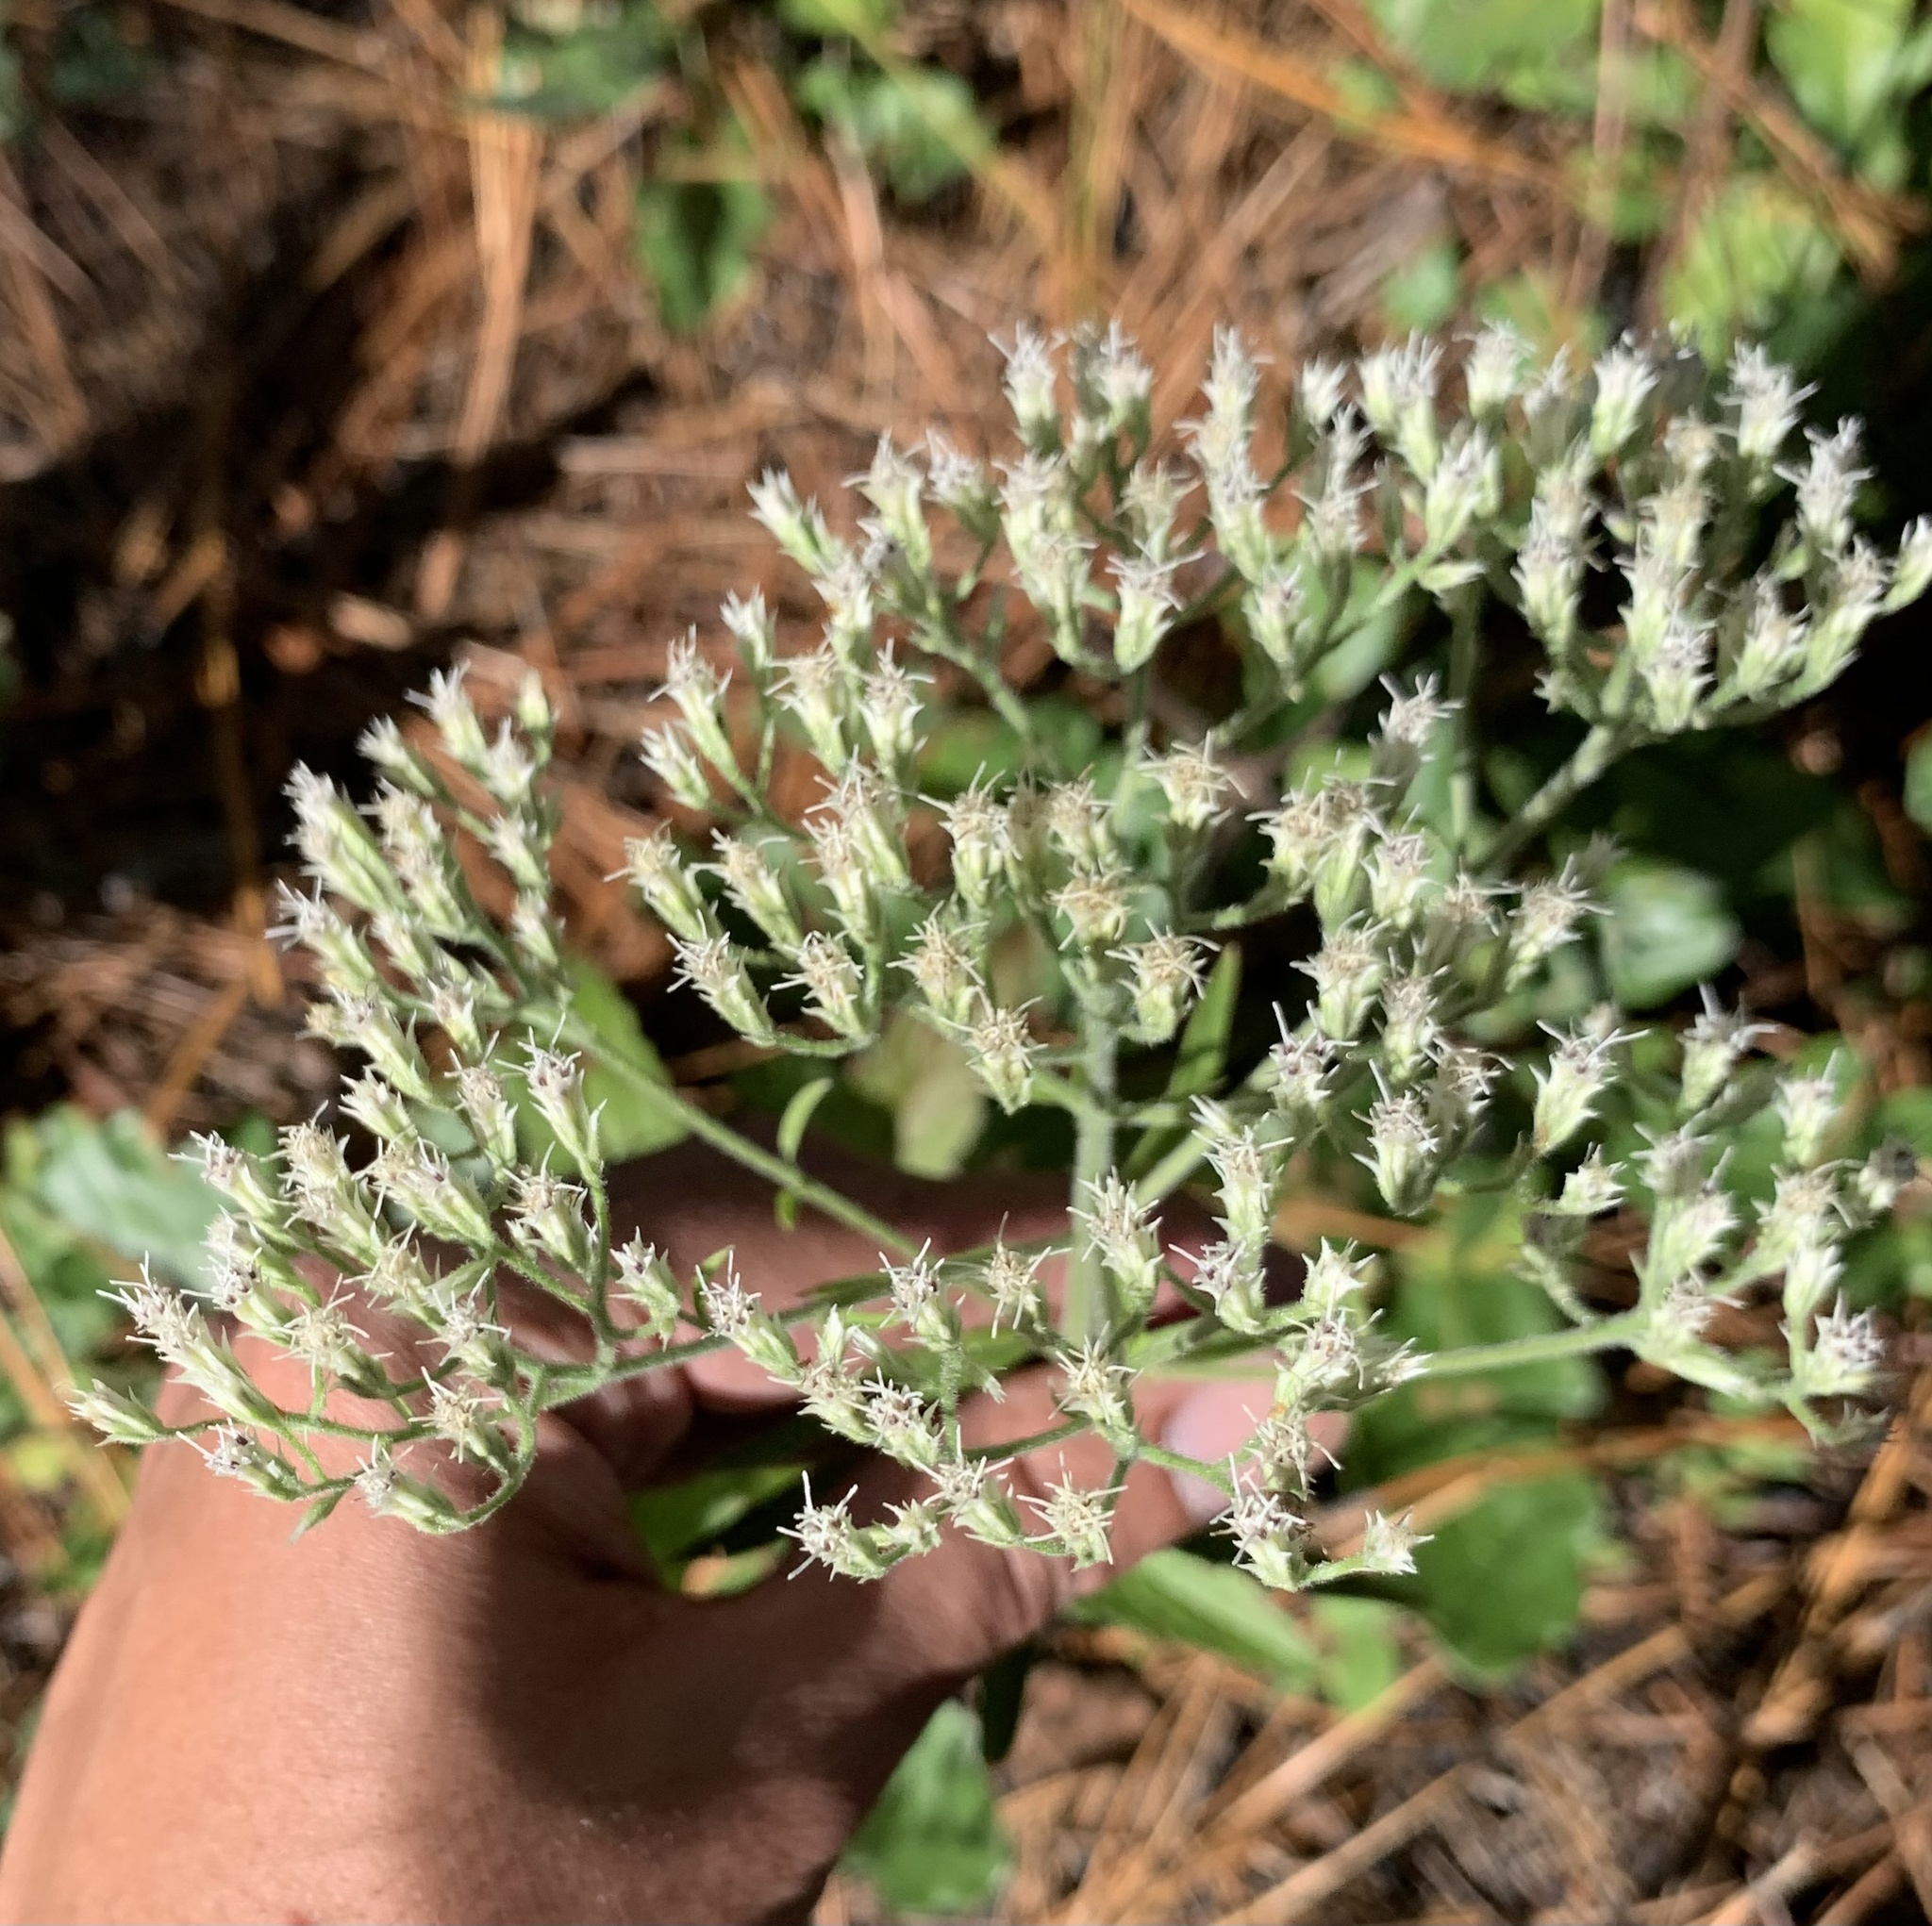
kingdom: Plantae
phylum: Tracheophyta
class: Magnoliopsida
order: Asterales
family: Asteraceae
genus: Eupatorium
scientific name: Eupatorium album
